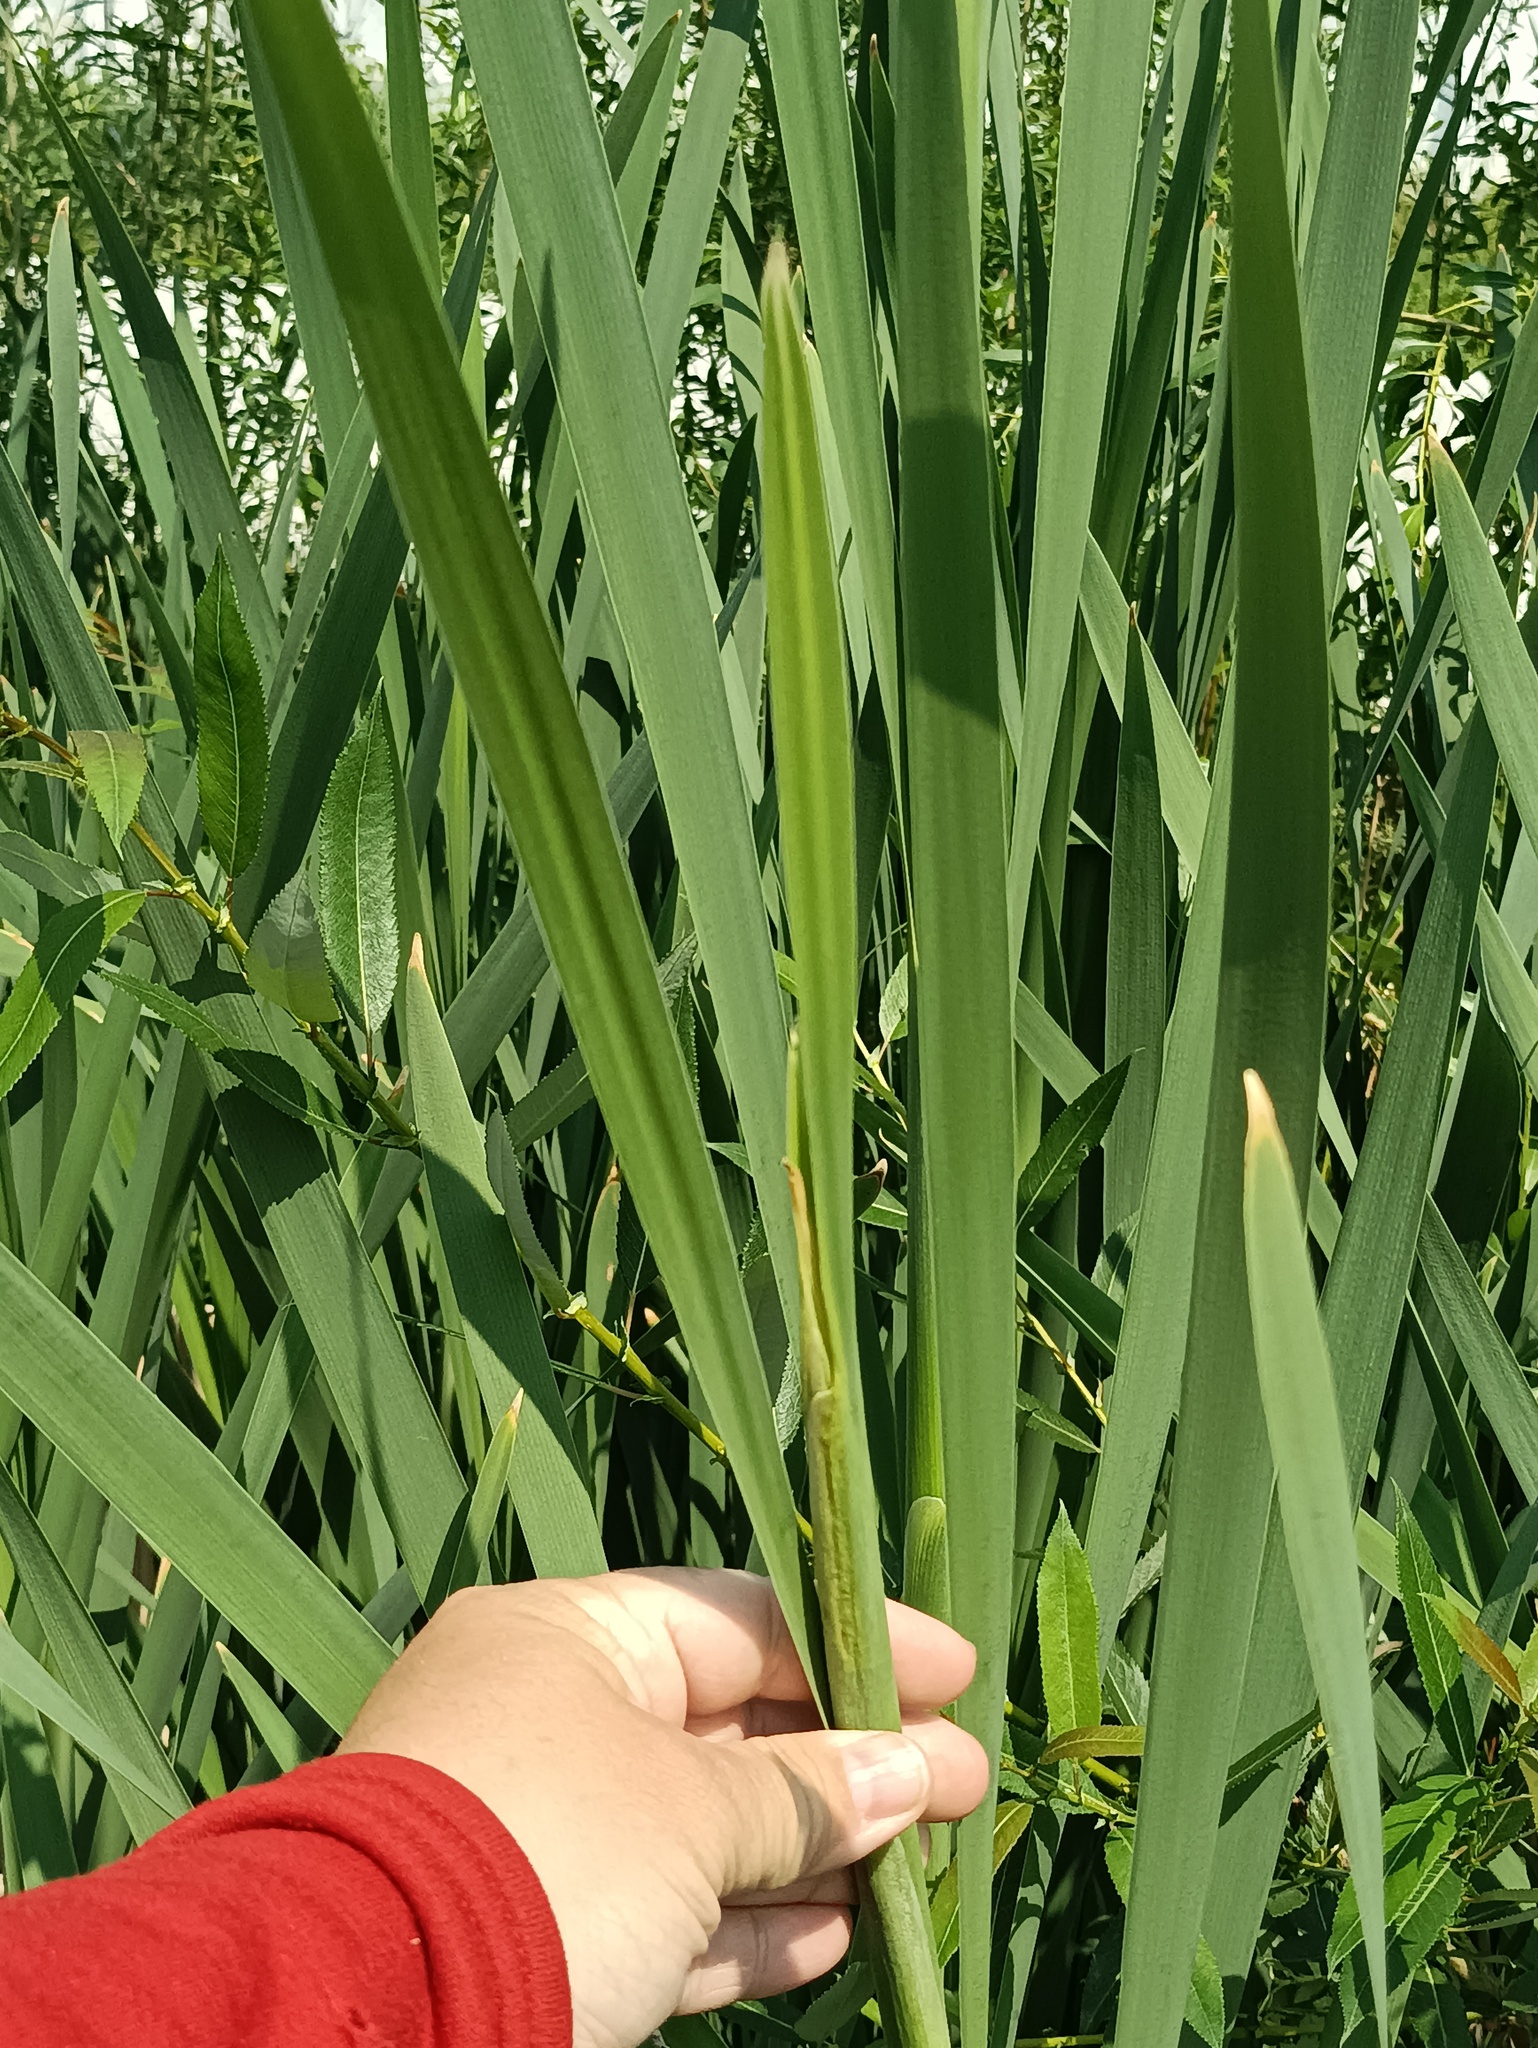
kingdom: Plantae
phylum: Tracheophyta
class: Liliopsida
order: Poales
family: Typhaceae
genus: Typha
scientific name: Typha latifolia
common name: Broadleaf cattail
